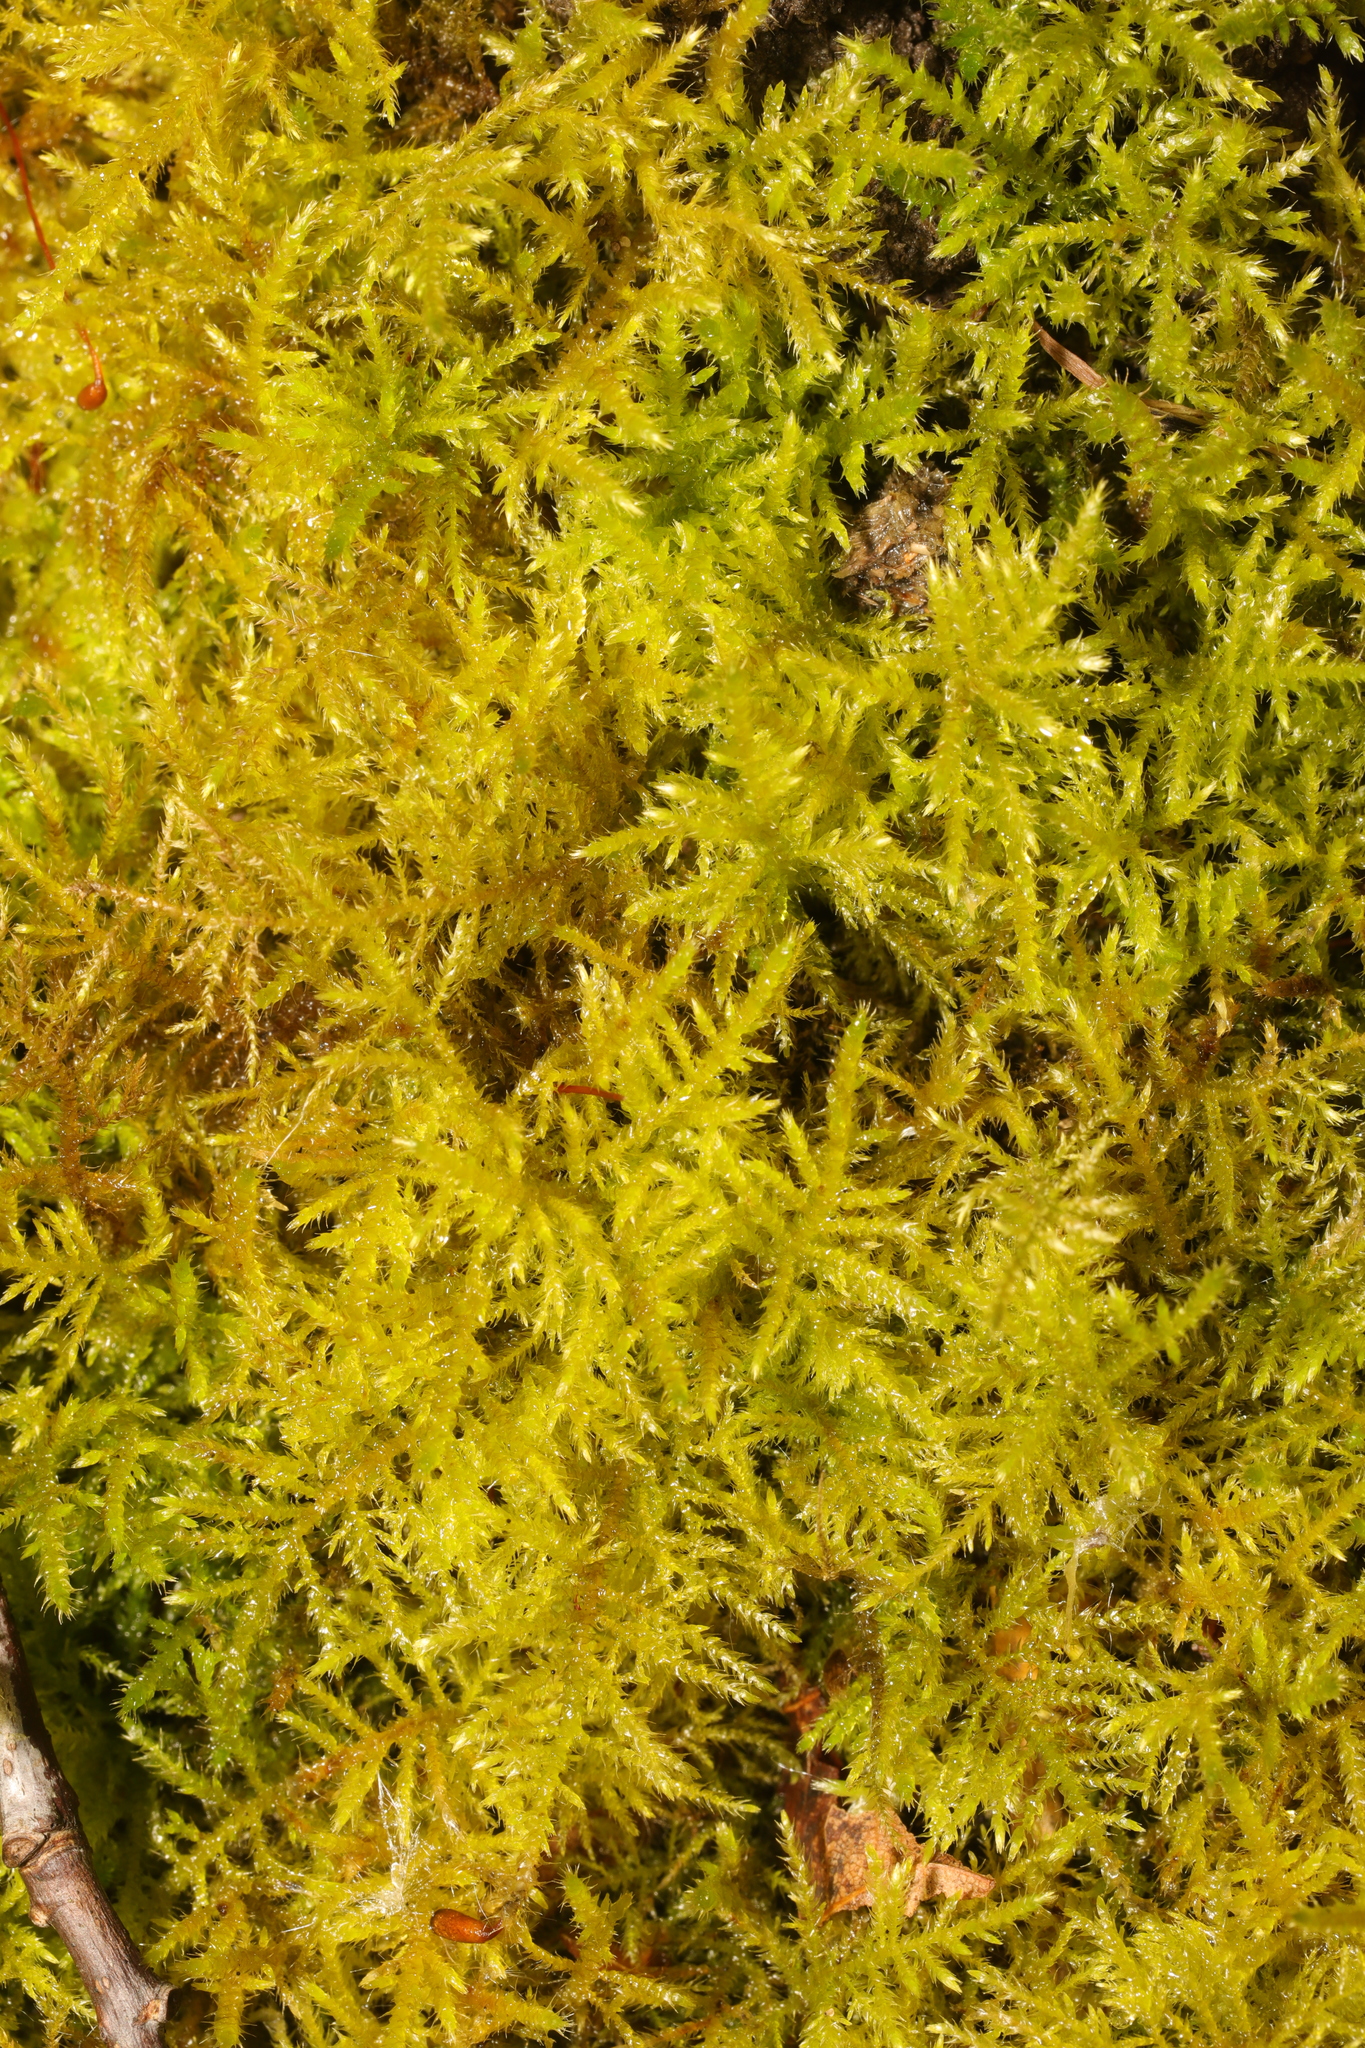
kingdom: Plantae
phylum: Bryophyta
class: Bryopsida
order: Hypnales
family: Brachytheciaceae
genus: Kindbergia
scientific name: Kindbergia praelonga
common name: Slender beaked moss
